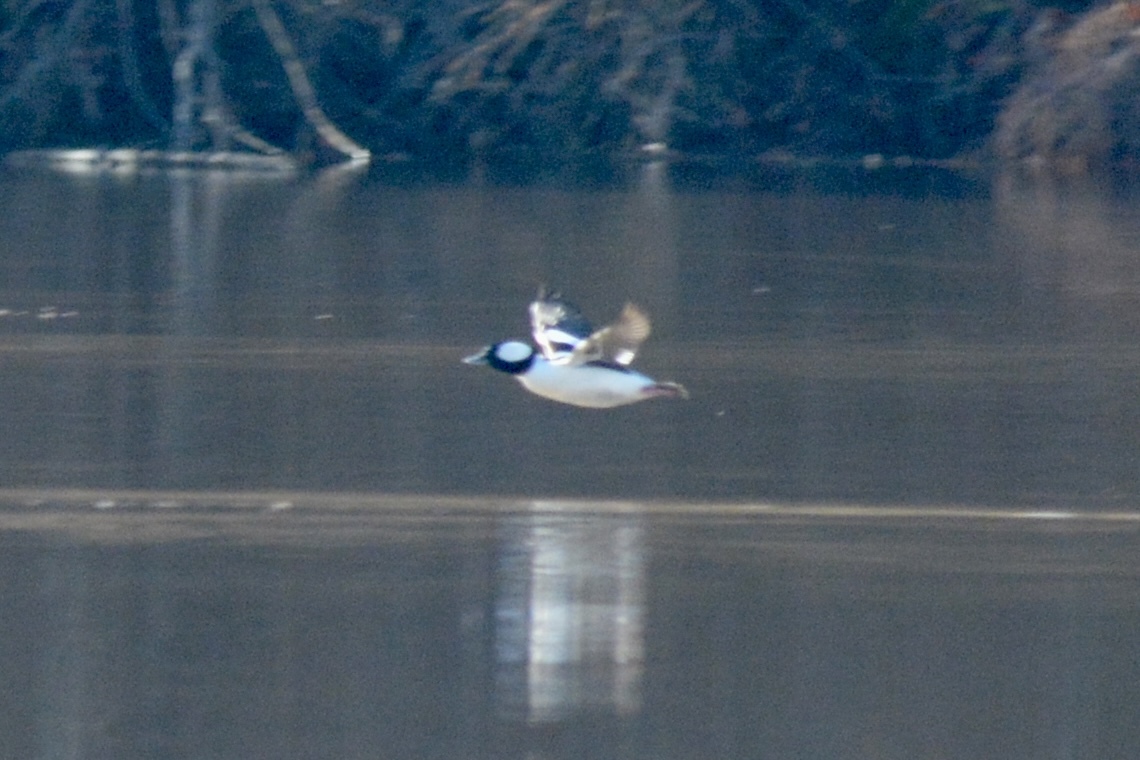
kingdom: Animalia
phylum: Chordata
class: Aves
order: Anseriformes
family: Anatidae
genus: Bucephala
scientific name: Bucephala albeola
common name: Bufflehead
